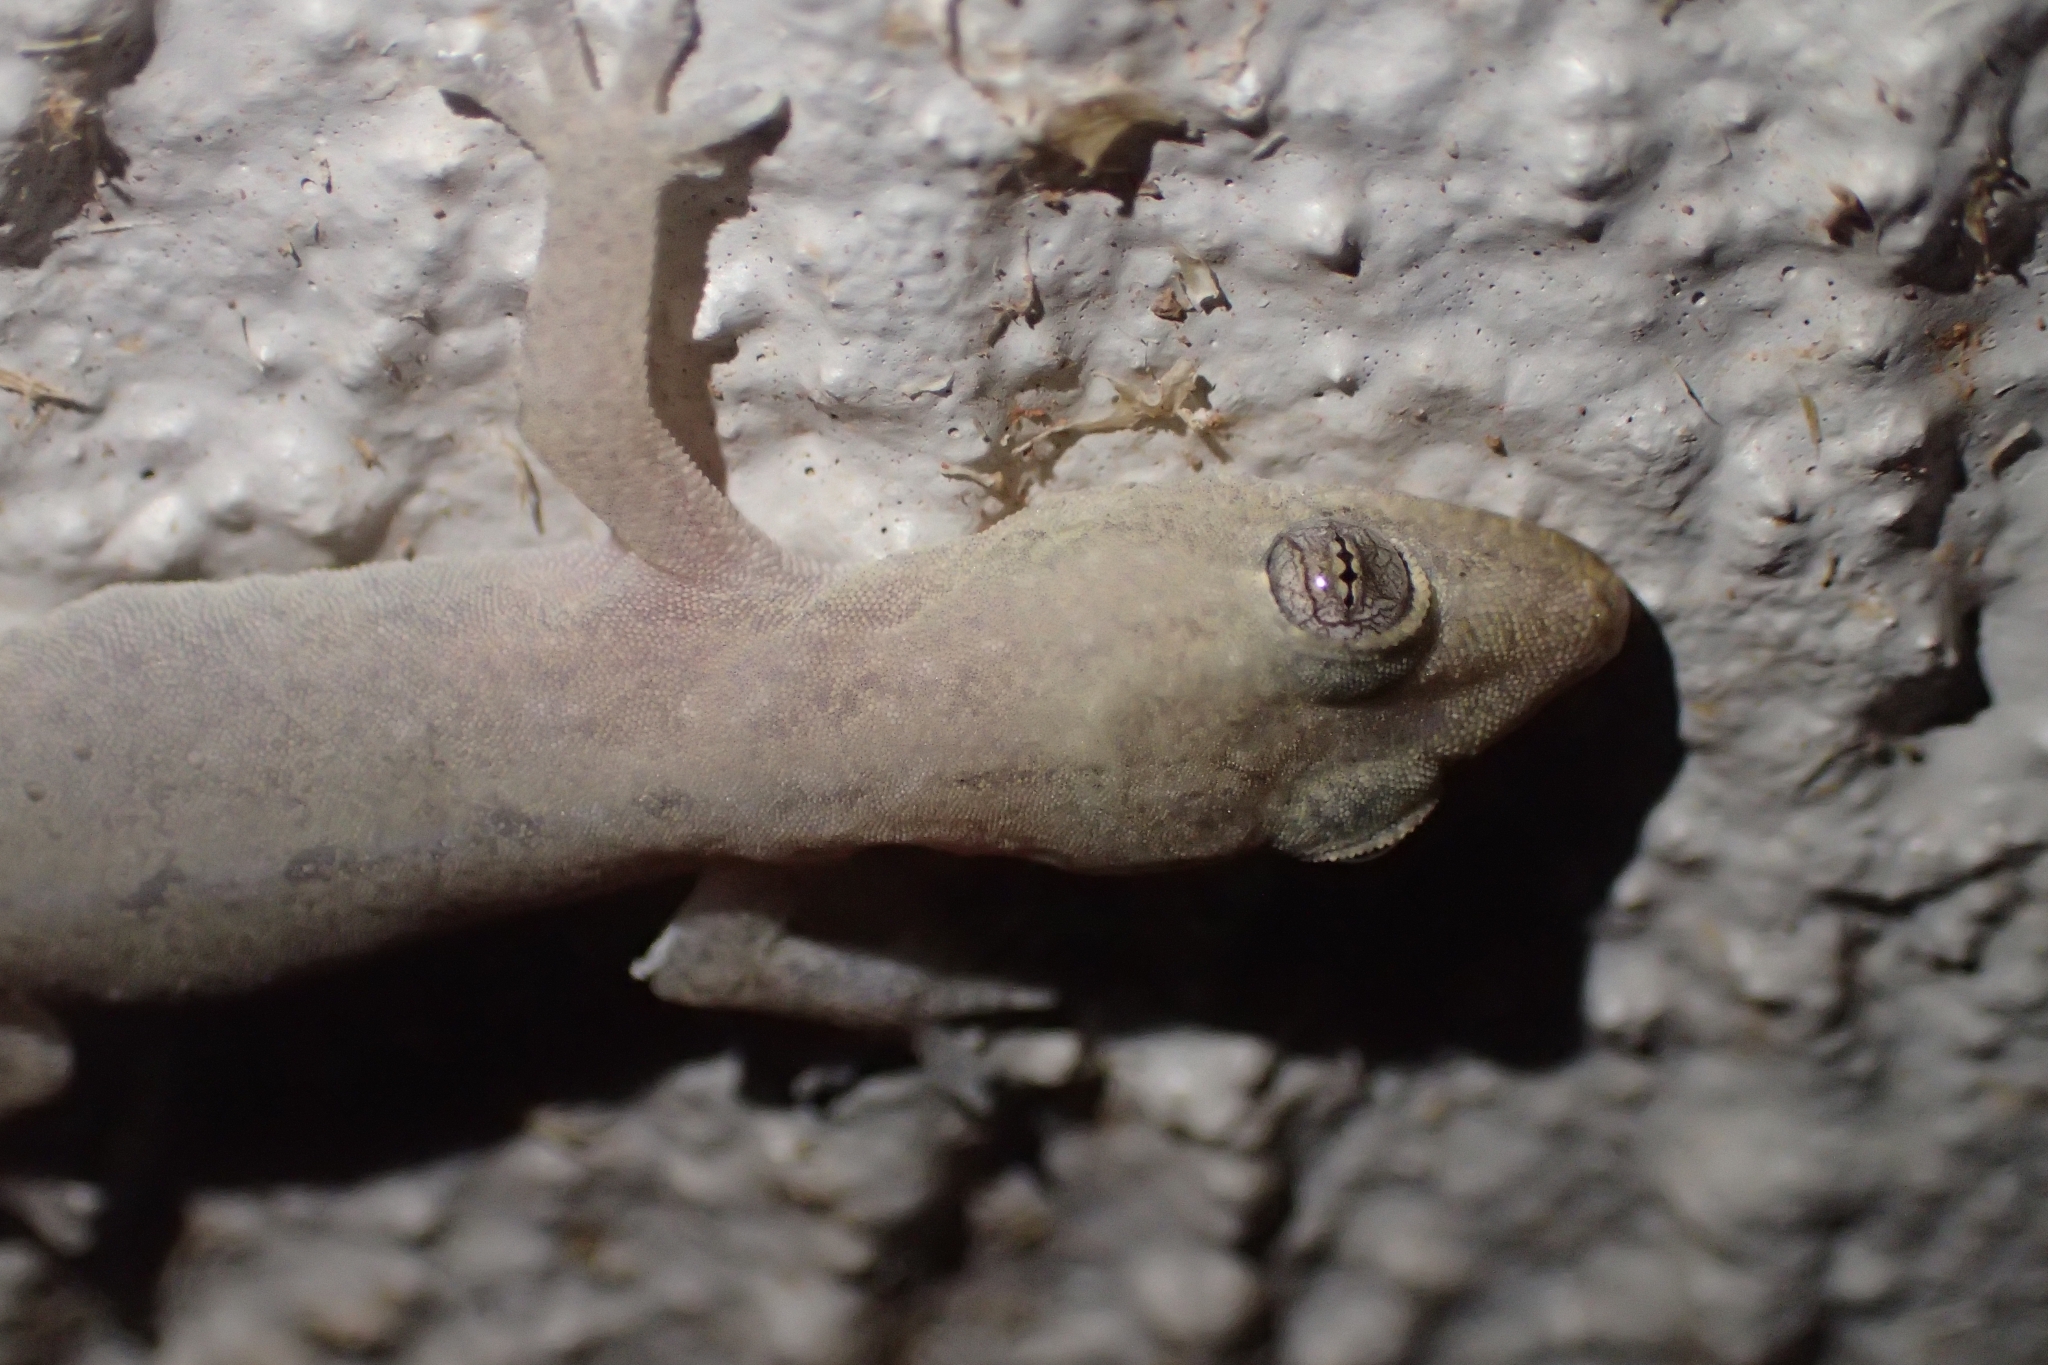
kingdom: Animalia
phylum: Chordata
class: Squamata
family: Gekkonidae
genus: Hemidactylus
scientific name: Hemidactylus frenatus
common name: Common house gecko
